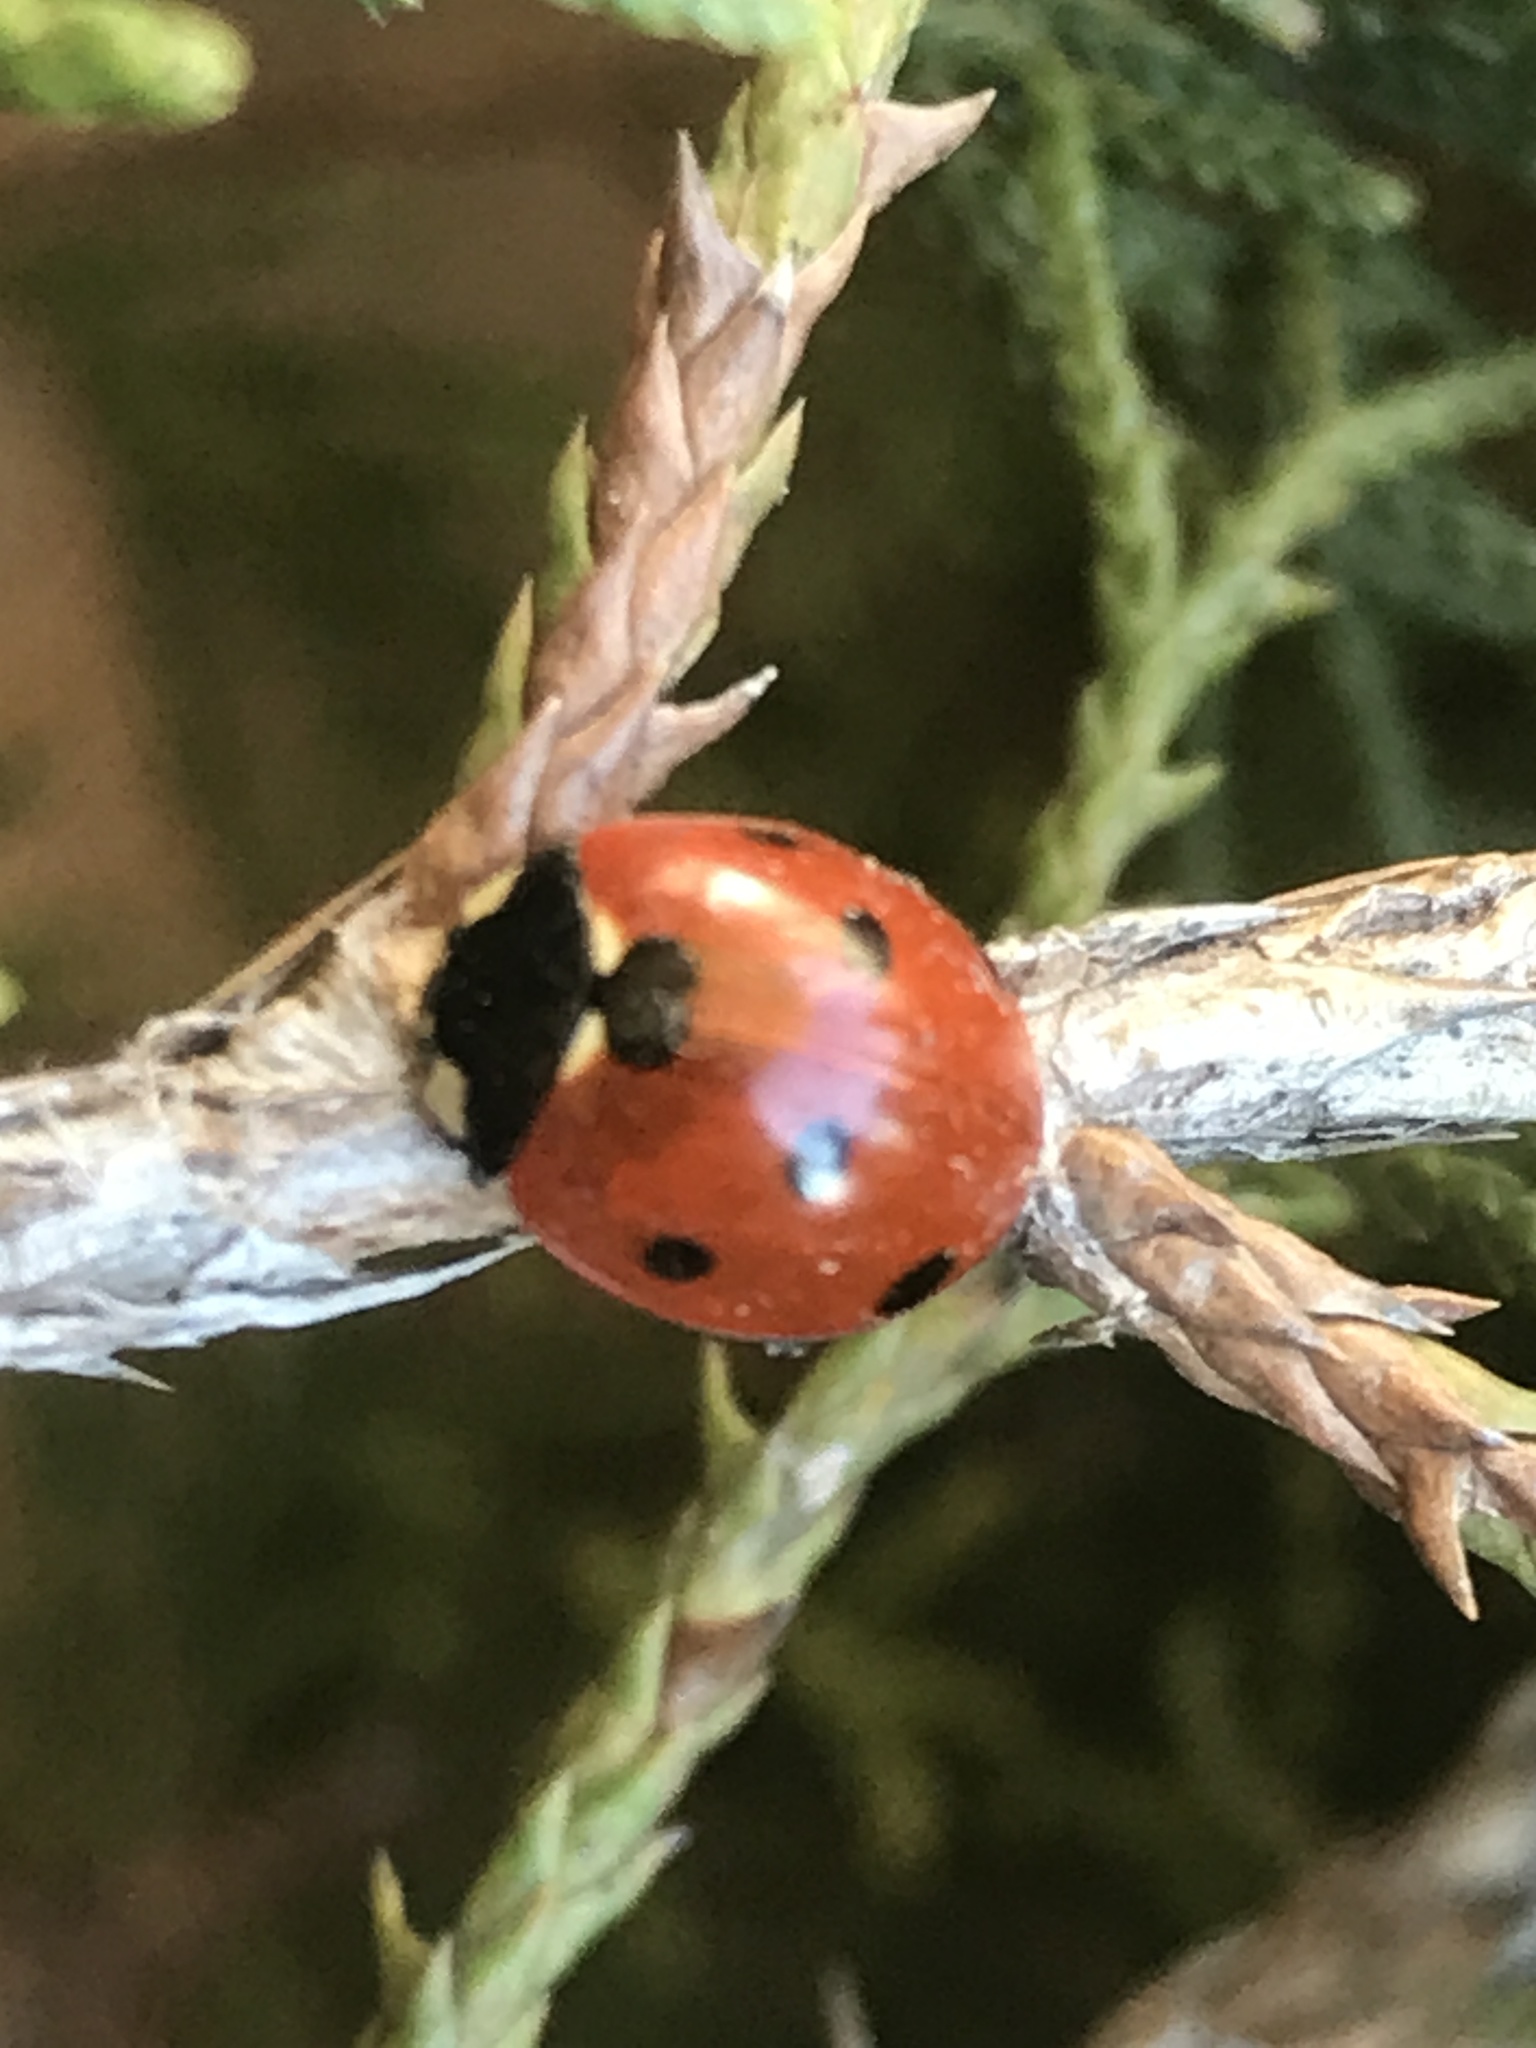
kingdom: Animalia
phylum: Arthropoda
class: Insecta
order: Coleoptera
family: Coccinellidae
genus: Coccinella
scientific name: Coccinella septempunctata
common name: Sevenspotted lady beetle
